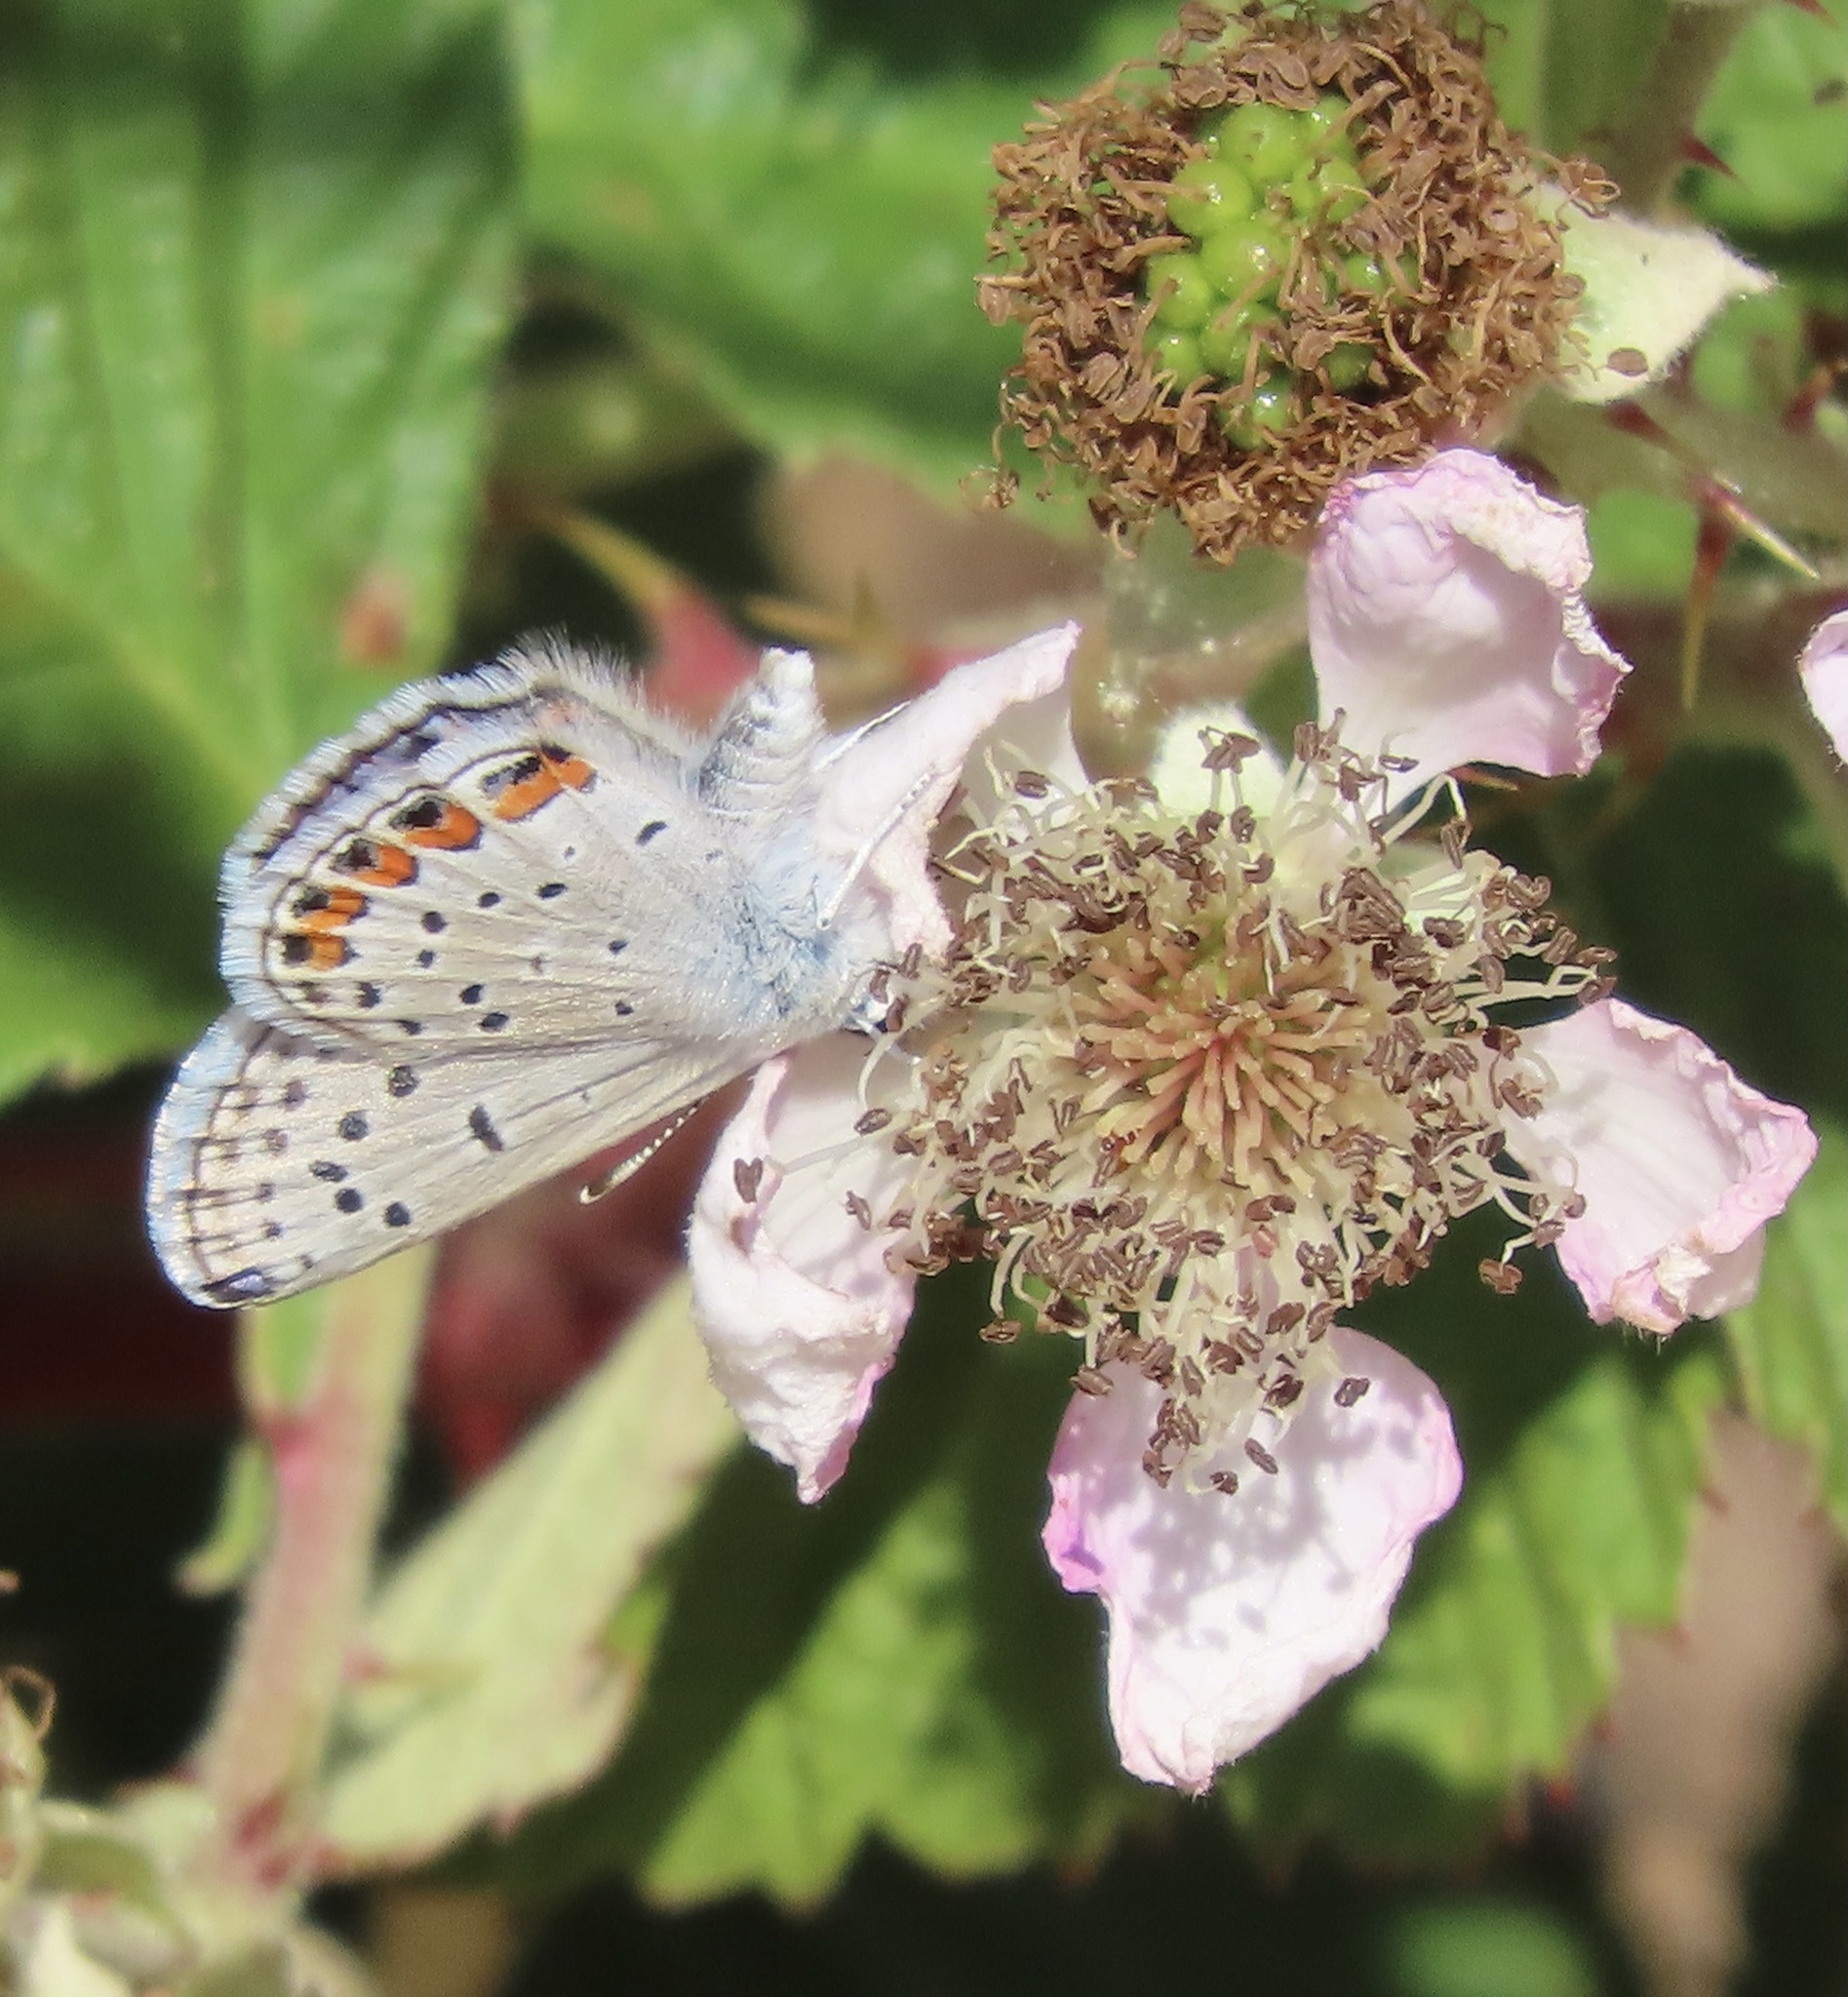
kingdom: Animalia
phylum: Arthropoda
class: Insecta
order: Lepidoptera
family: Lycaenidae
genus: Icaricia
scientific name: Icaricia acmon
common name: Acmon blue
